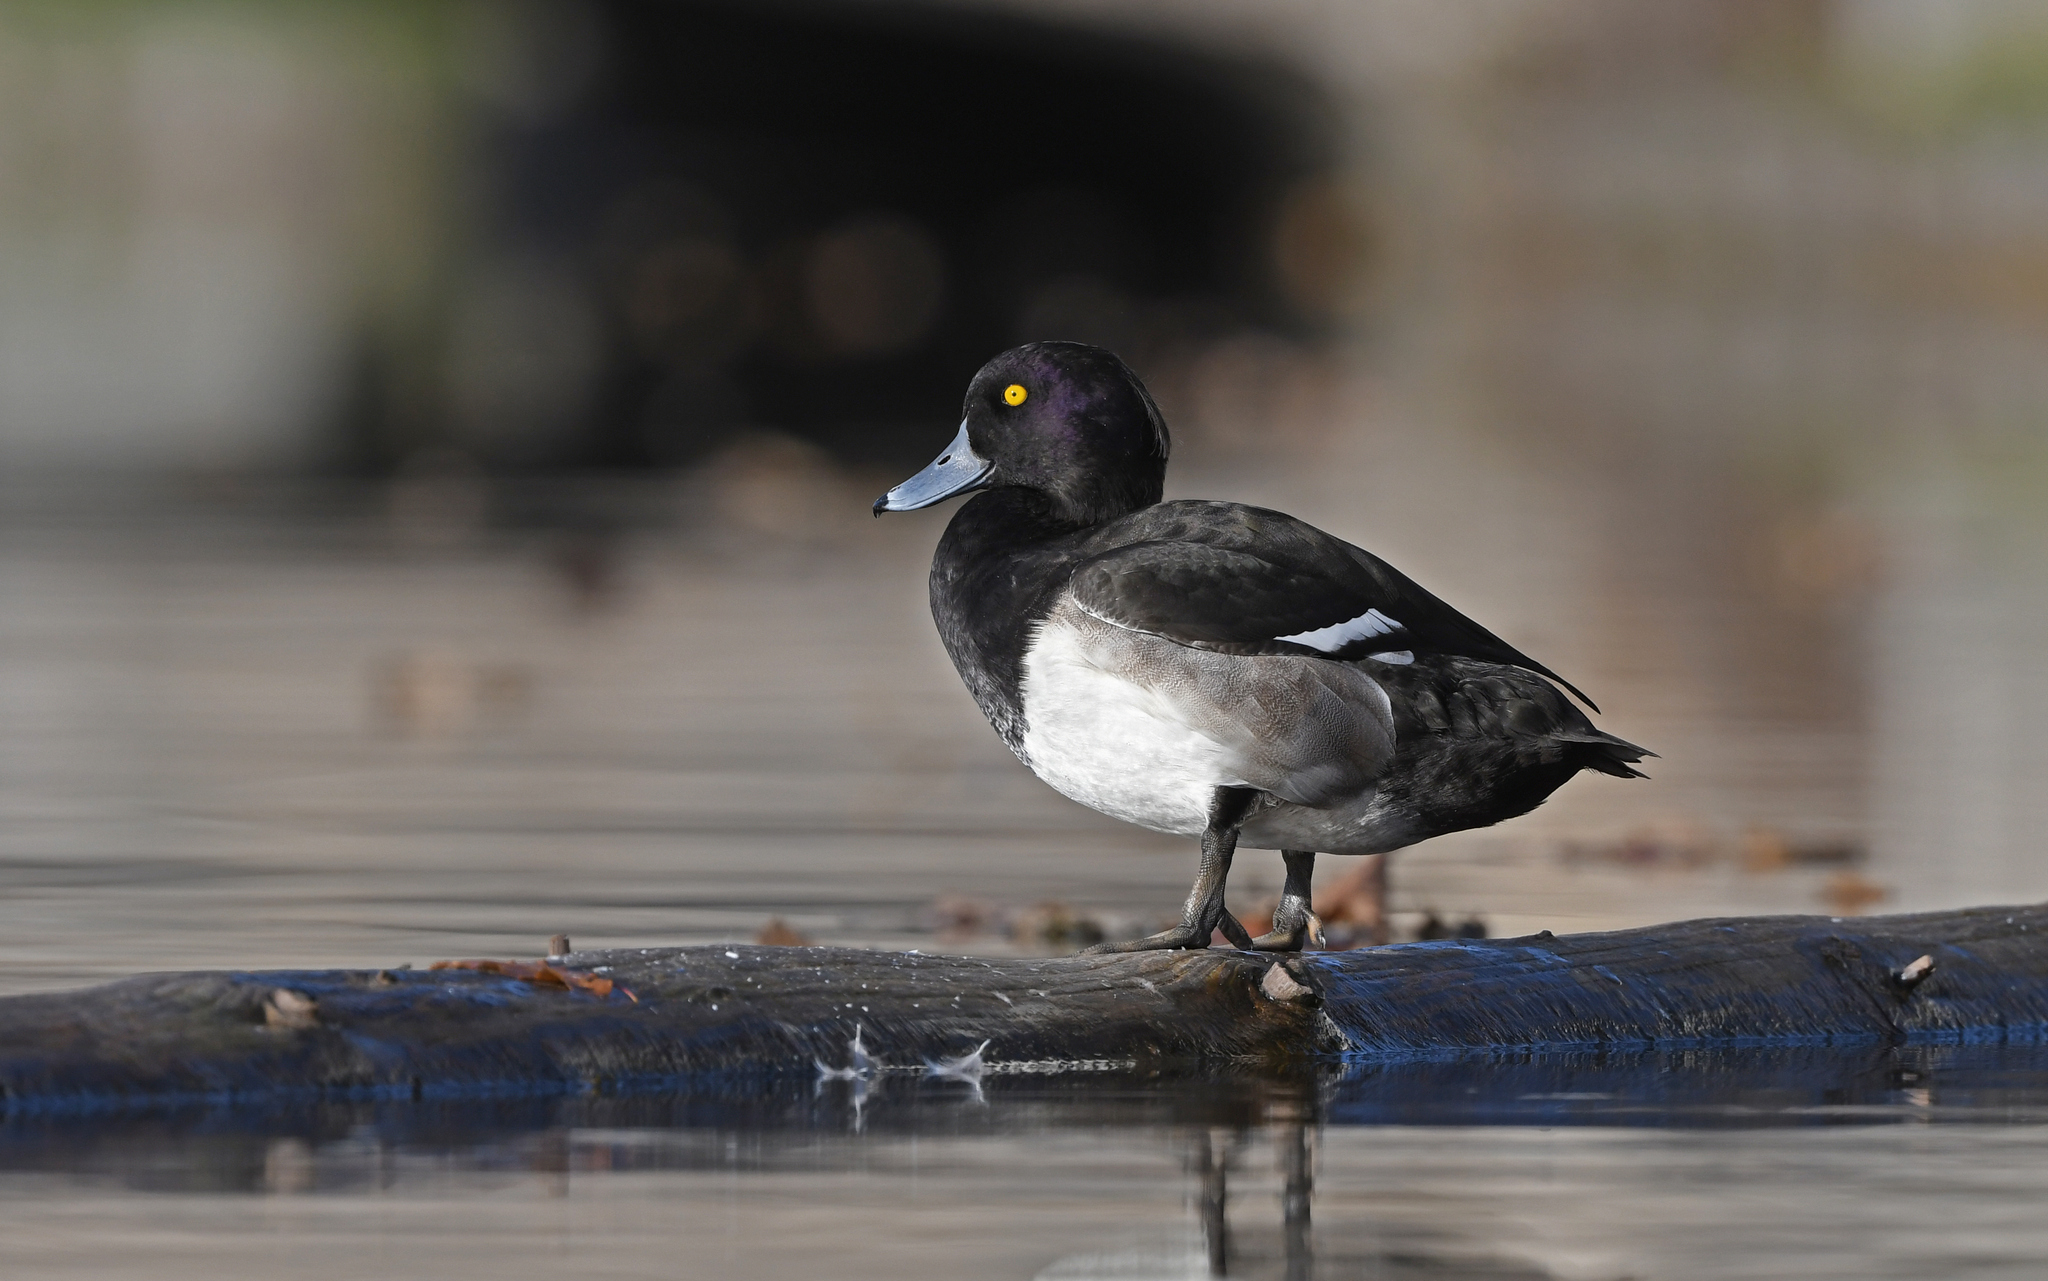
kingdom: Animalia
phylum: Chordata
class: Aves
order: Anseriformes
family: Anatidae
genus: Aythya
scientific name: Aythya fuligula
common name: Tufted duck
